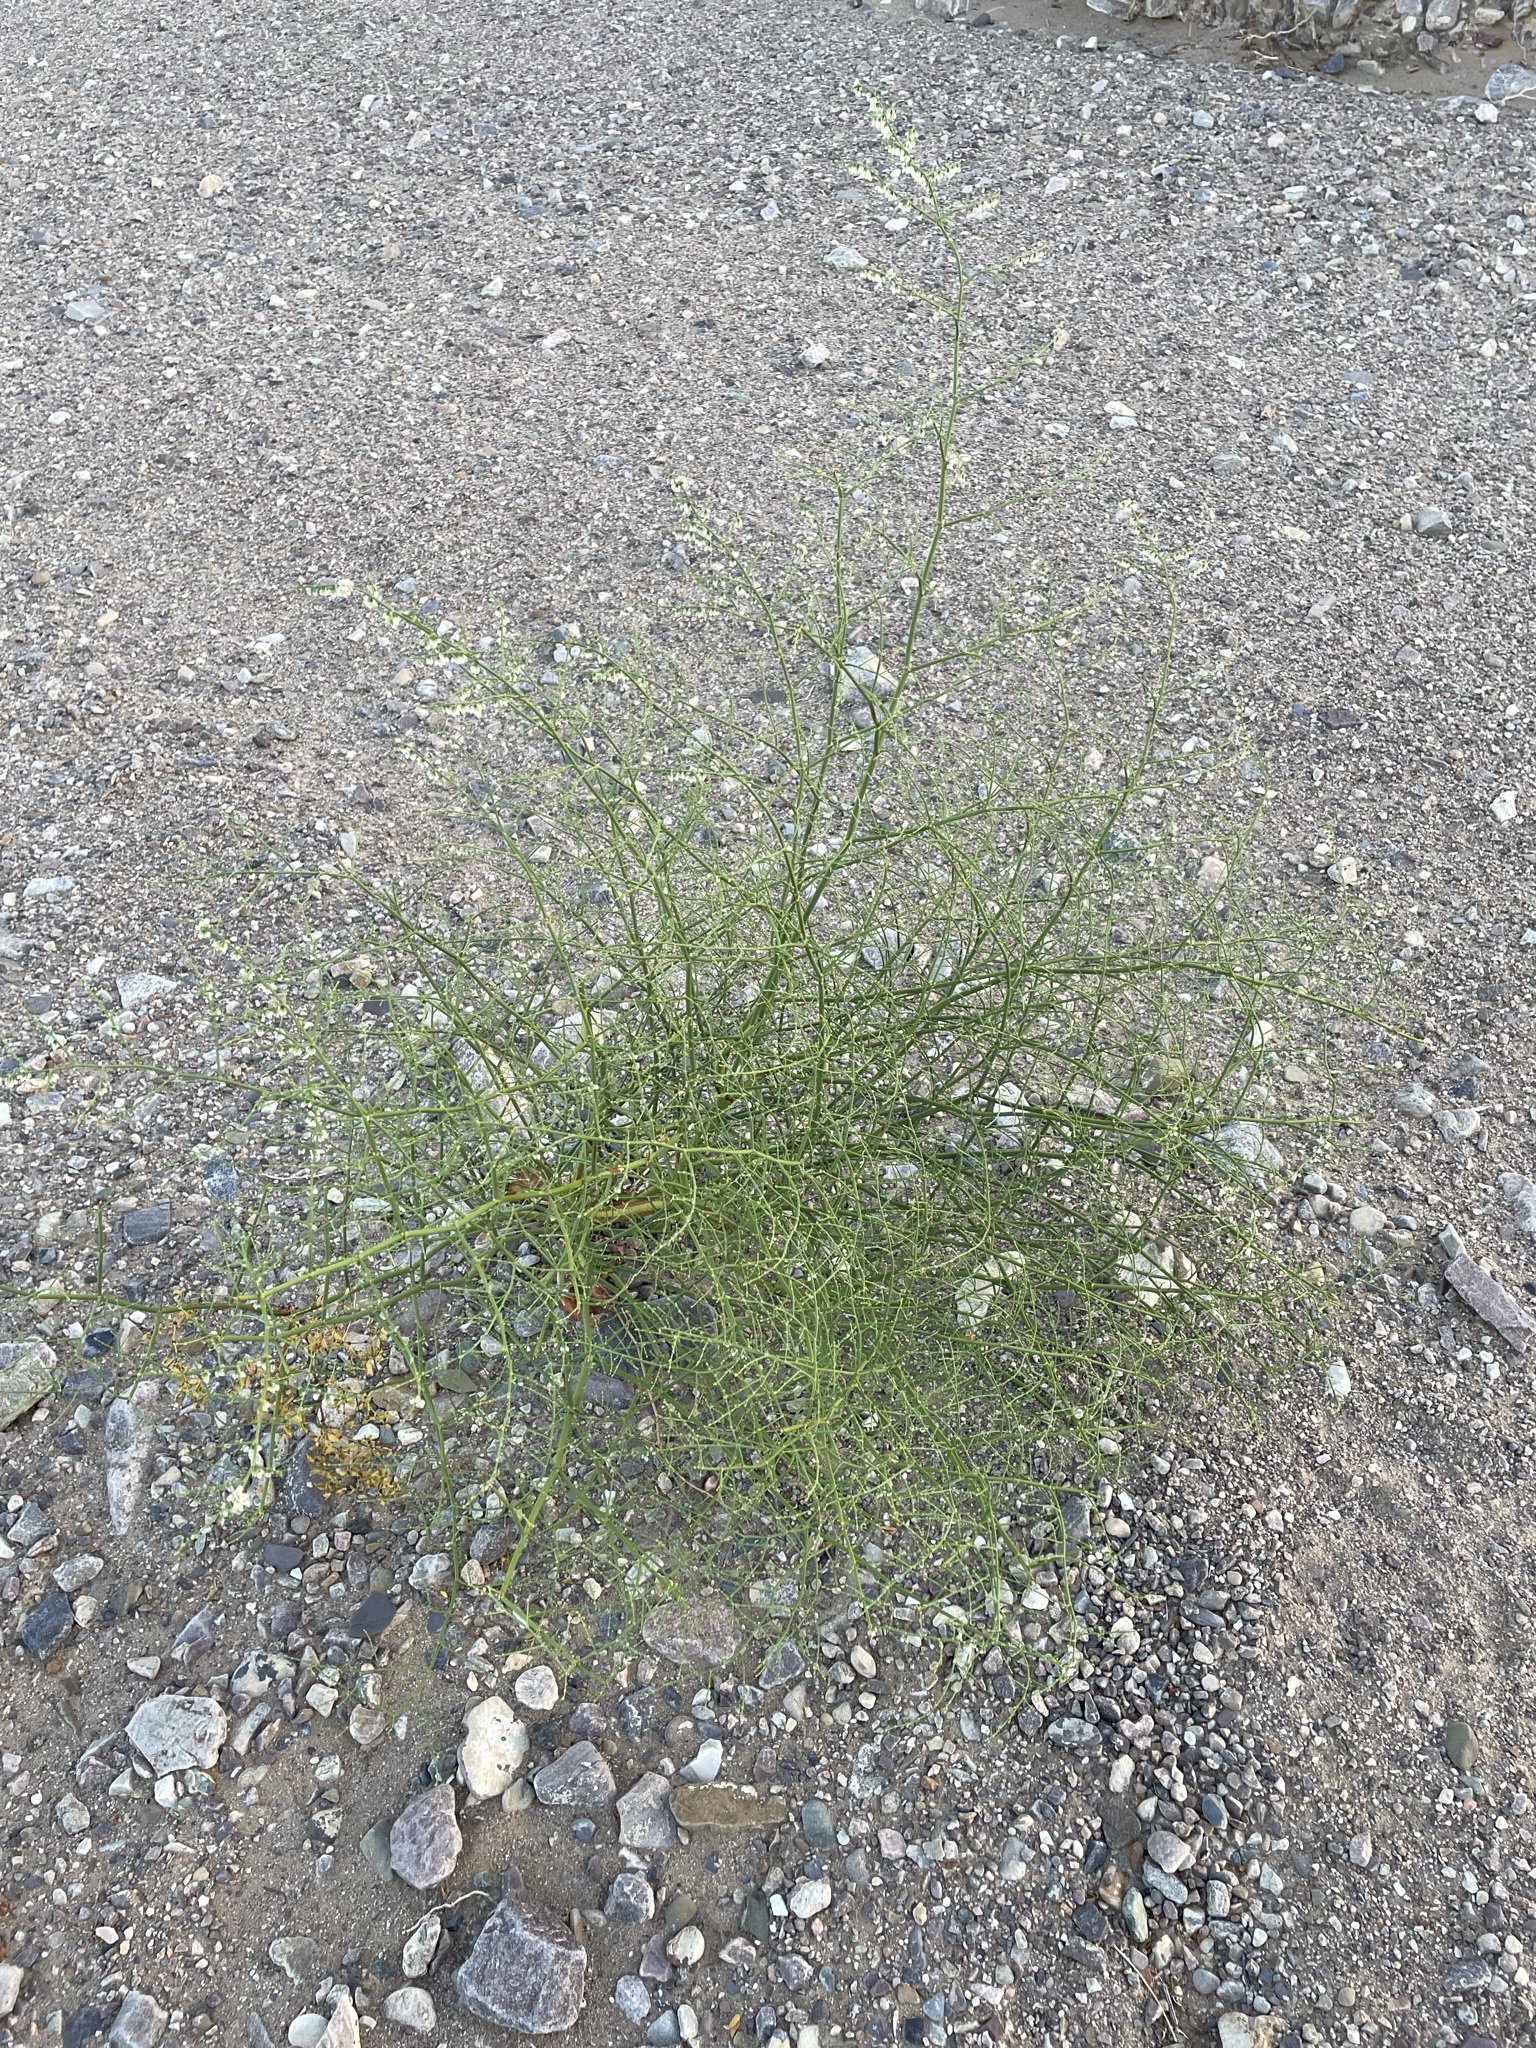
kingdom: Plantae
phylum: Tracheophyta
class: Magnoliopsida
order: Caryophyllales
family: Polygonaceae
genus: Eriogonum
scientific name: Eriogonum deflexum
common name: Skeleton-weed
